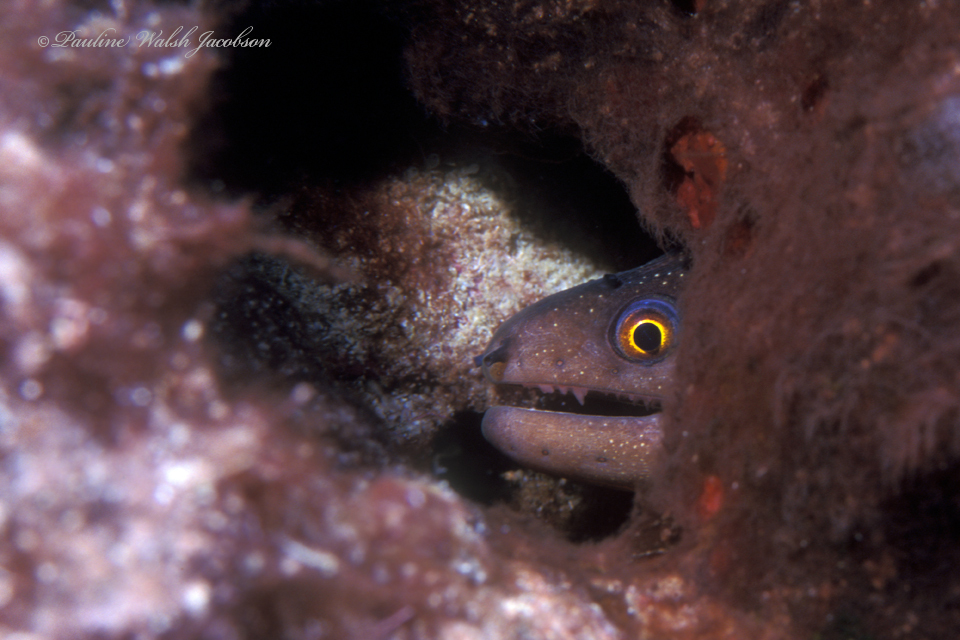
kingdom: Animalia
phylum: Chordata
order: Anguilliformes
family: Muraenidae
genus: Gymnothorax
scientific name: Gymnothorax miliaris
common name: Goldentail moray
